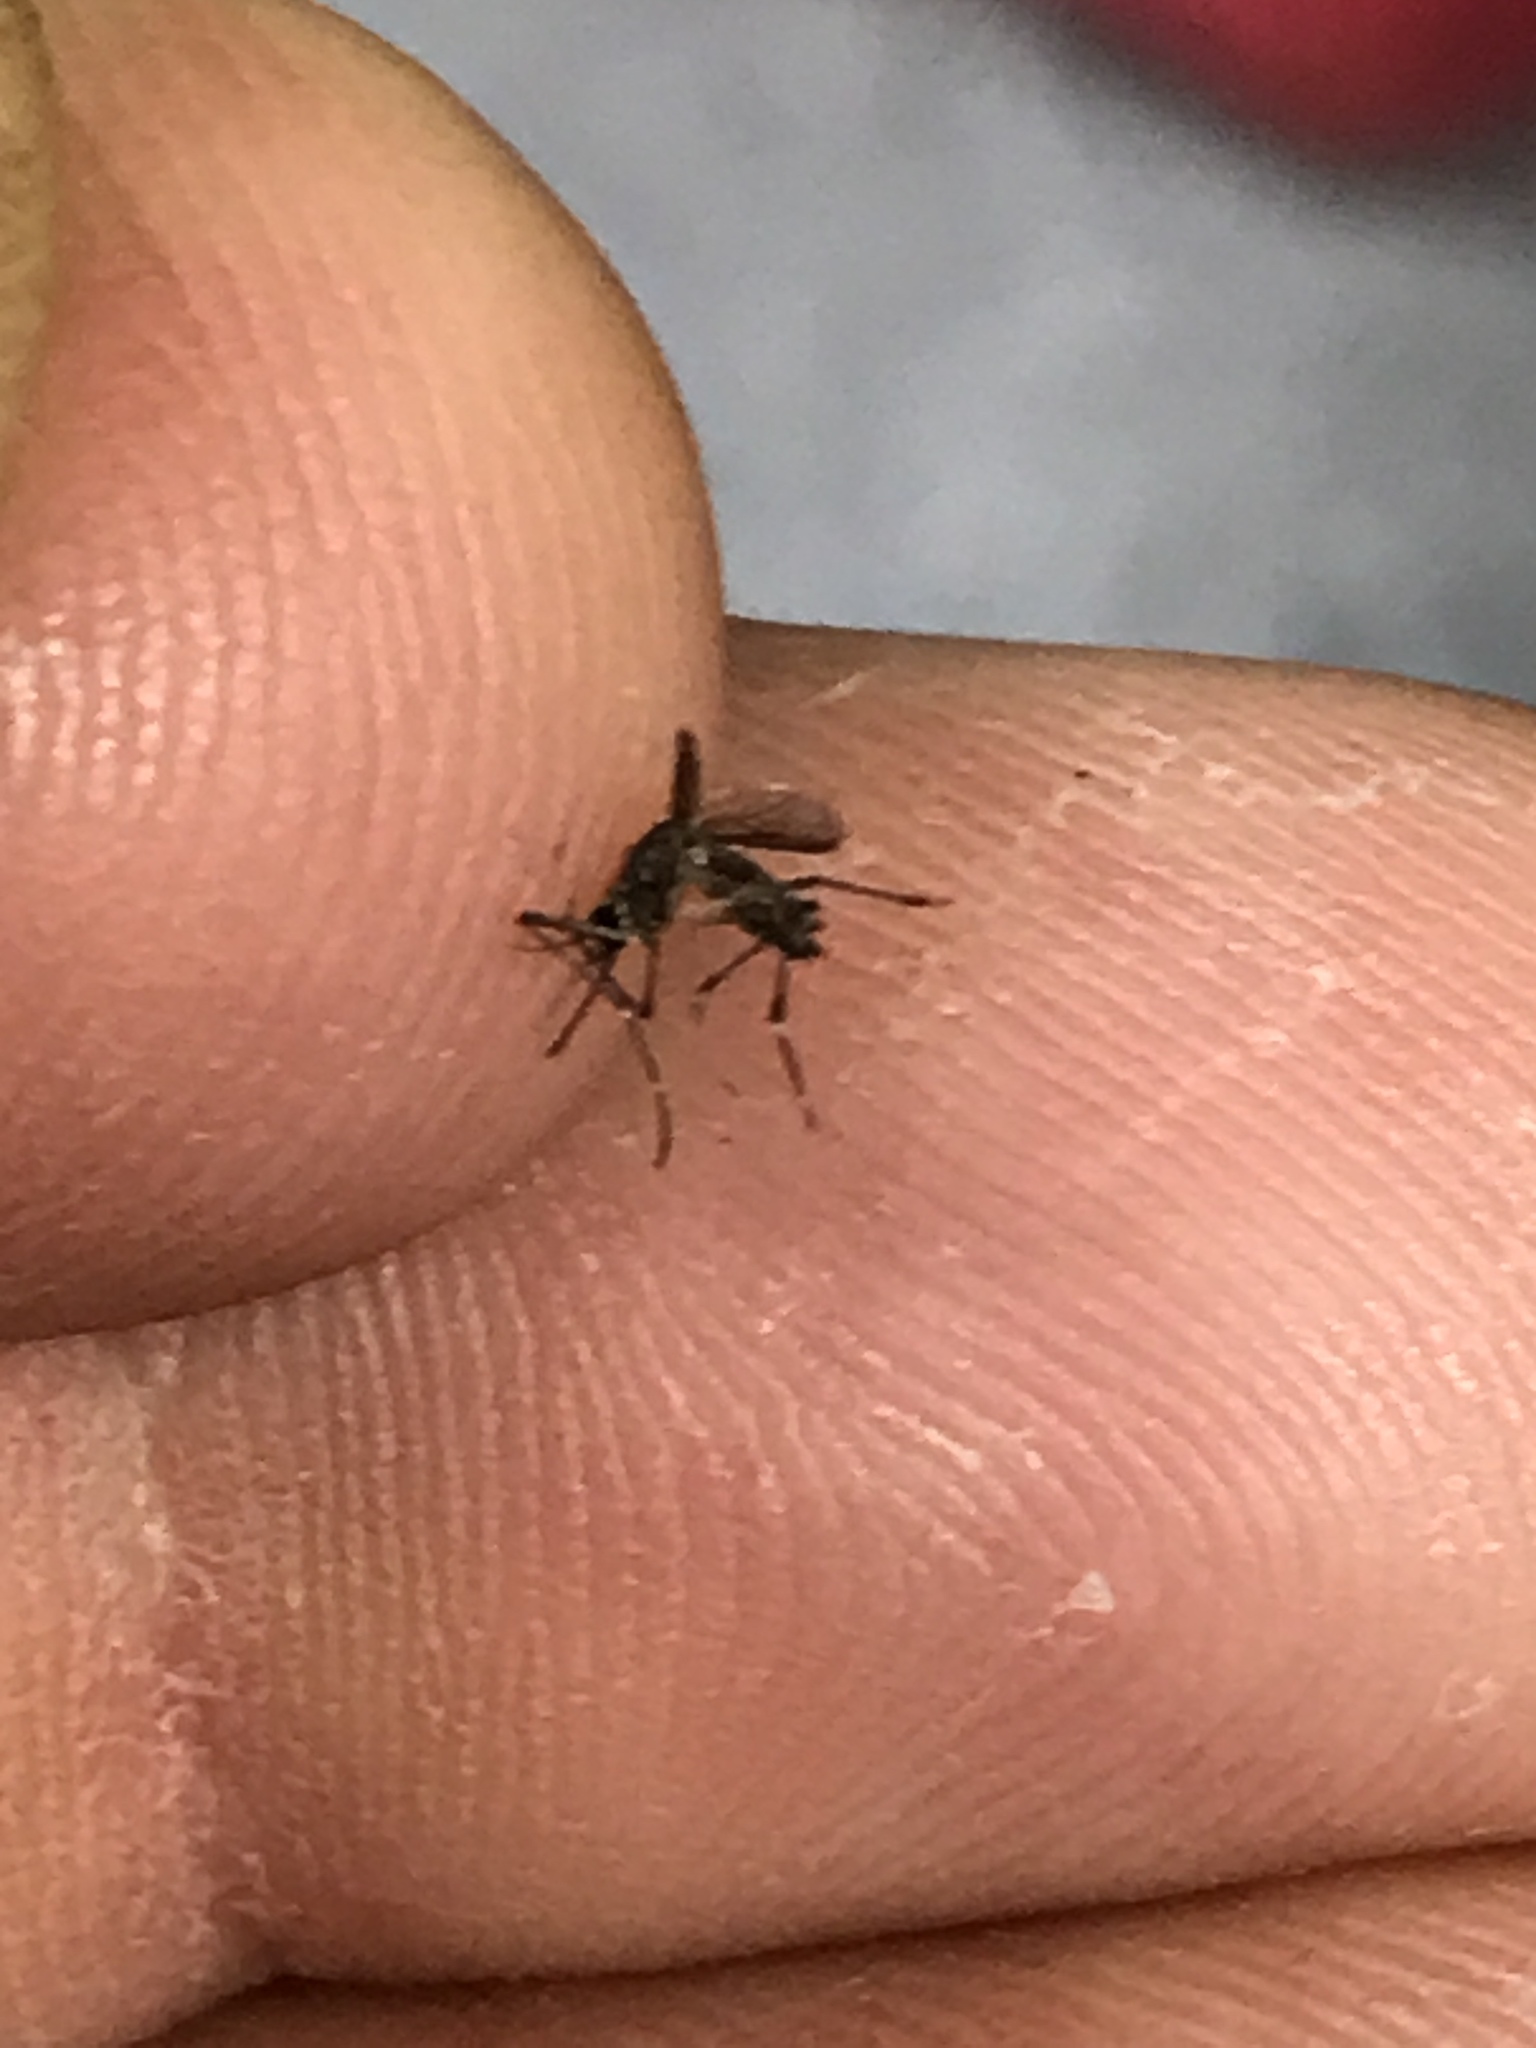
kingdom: Animalia
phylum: Arthropoda
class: Insecta
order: Diptera
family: Culicidae
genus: Aedes
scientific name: Aedes albopictus
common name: Tiger mosquito
